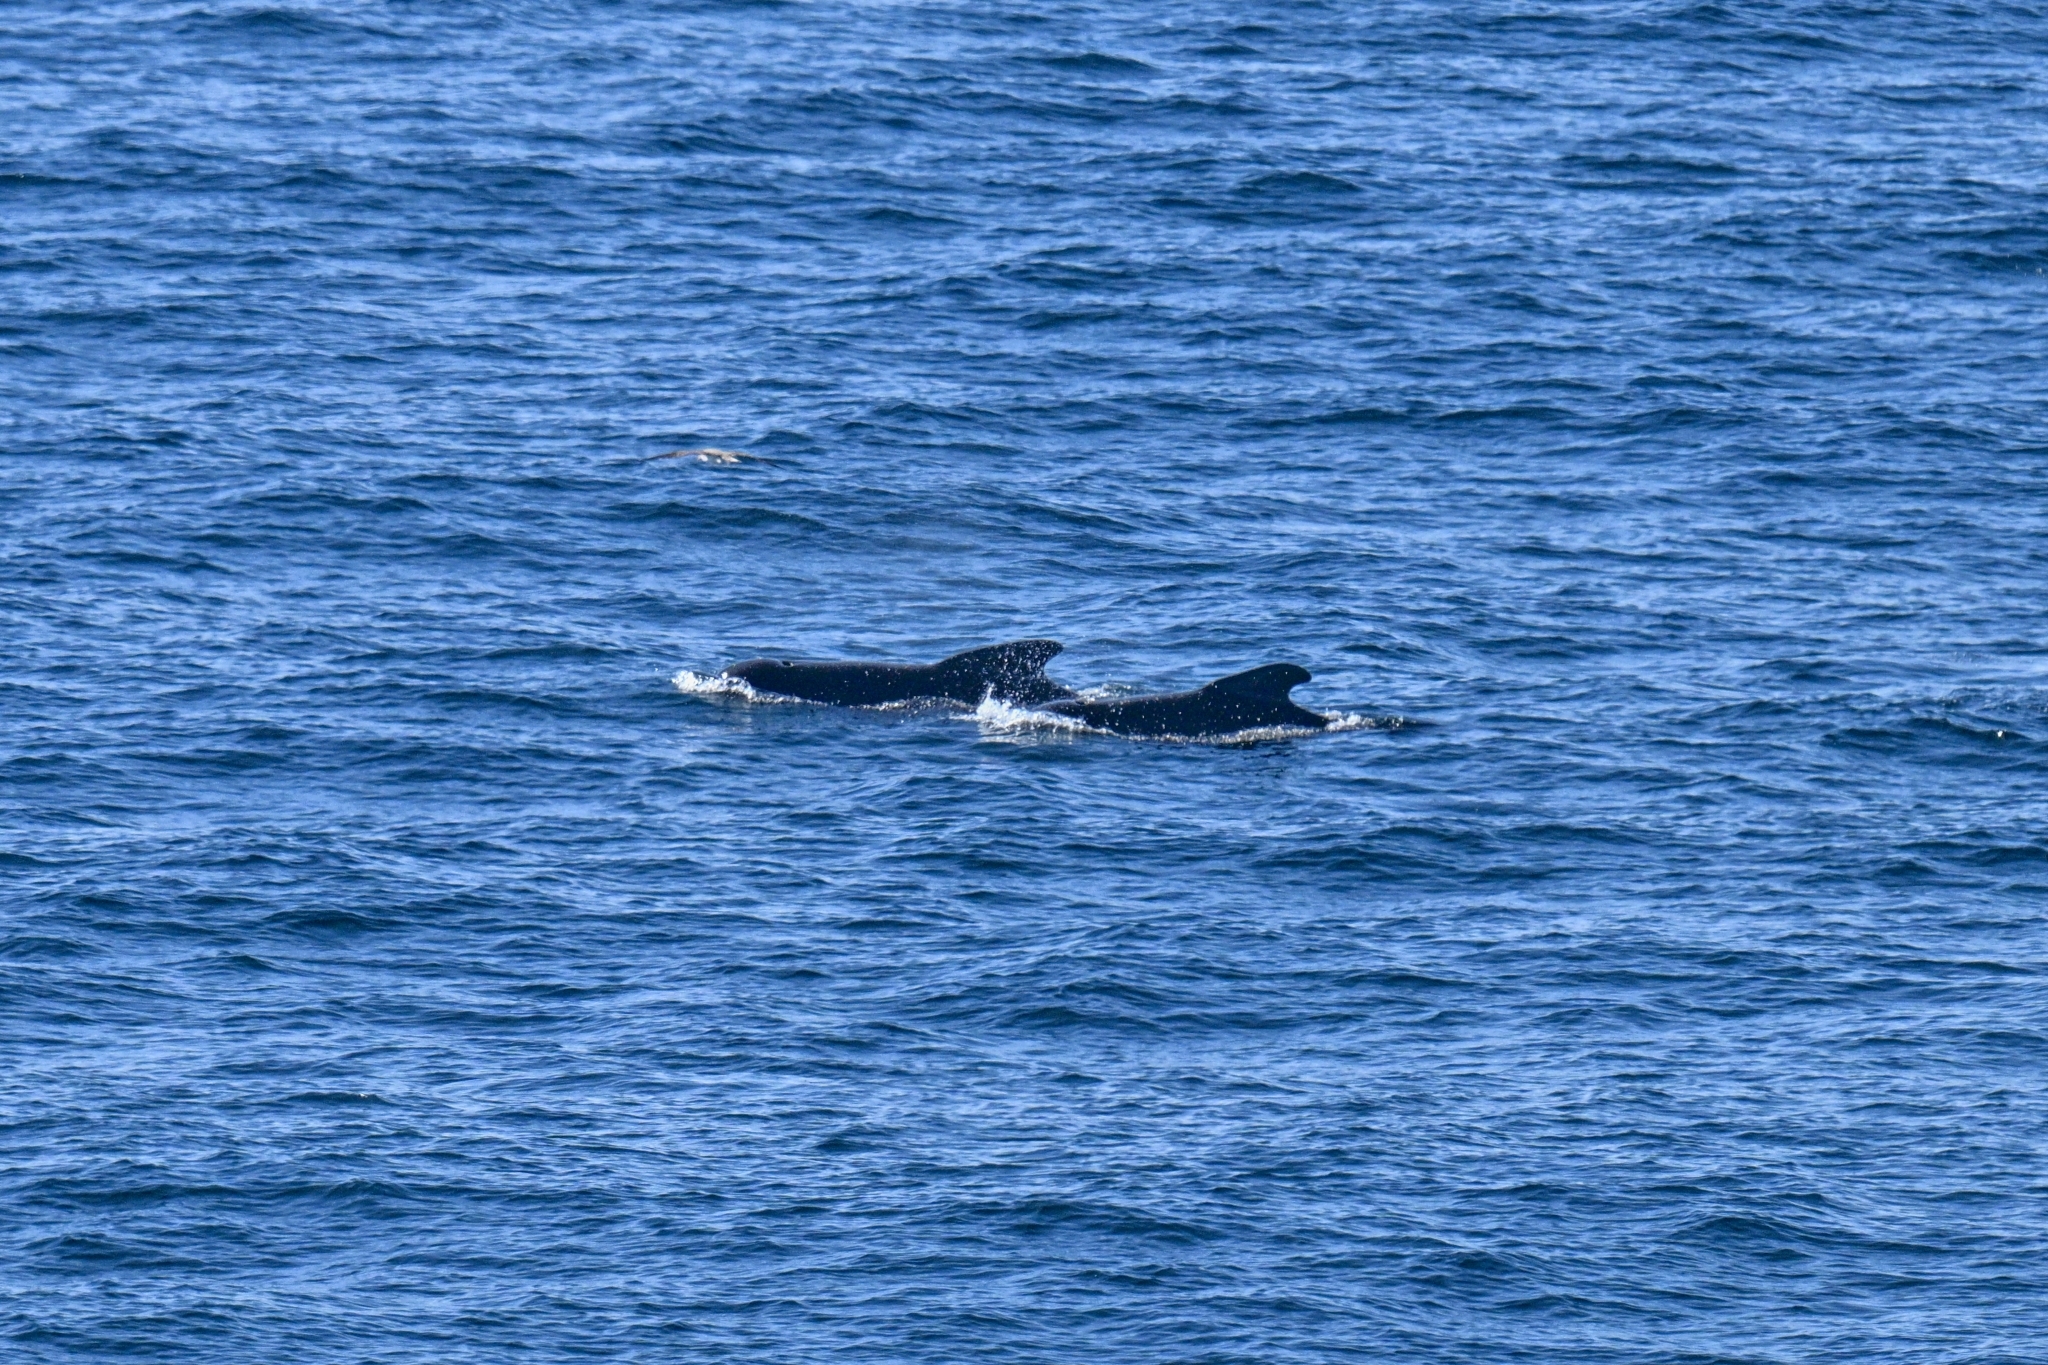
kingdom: Animalia
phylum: Chordata
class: Mammalia
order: Cetacea
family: Delphinidae
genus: Globicephala
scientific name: Globicephala melas
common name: Long-finned pilot whale
